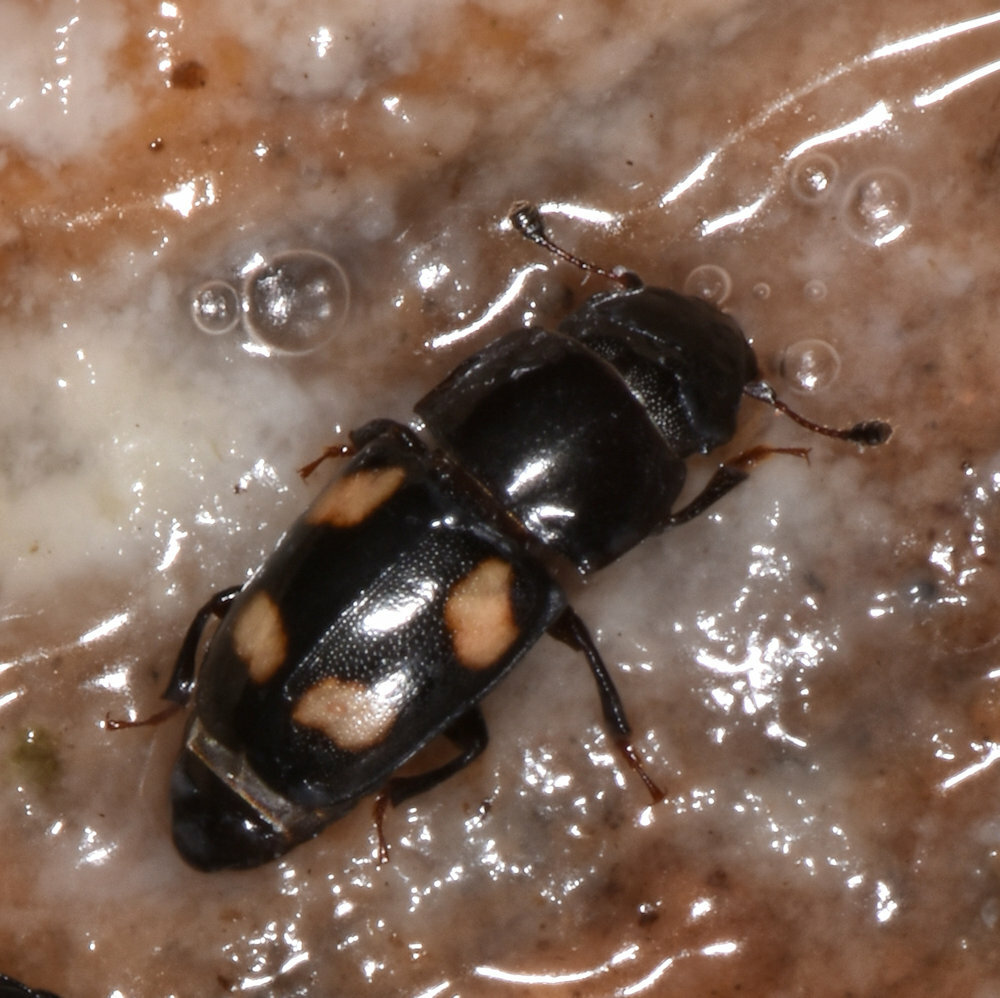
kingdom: Animalia
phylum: Arthropoda
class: Insecta
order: Coleoptera
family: Nitidulidae
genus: Glischrochilus
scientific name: Glischrochilus quadrisignatus
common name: Picnic beetle
